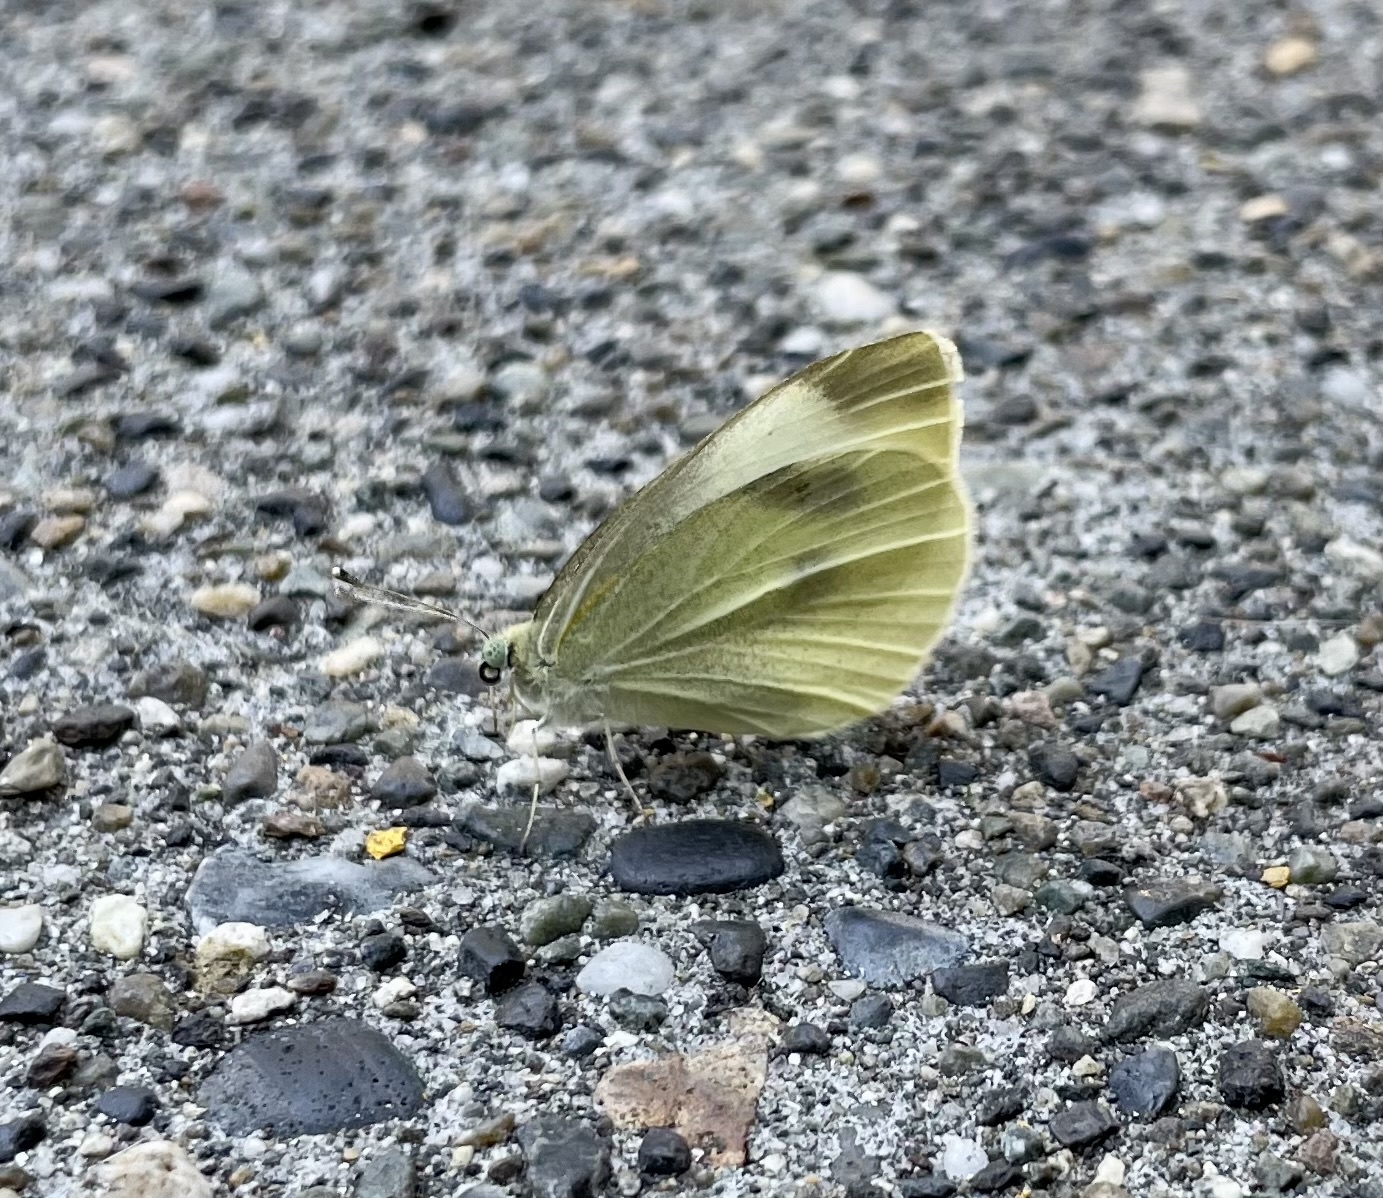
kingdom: Animalia
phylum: Arthropoda
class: Insecta
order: Lepidoptera
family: Pieridae
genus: Pieris
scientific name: Pieris rapae
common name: Small white
